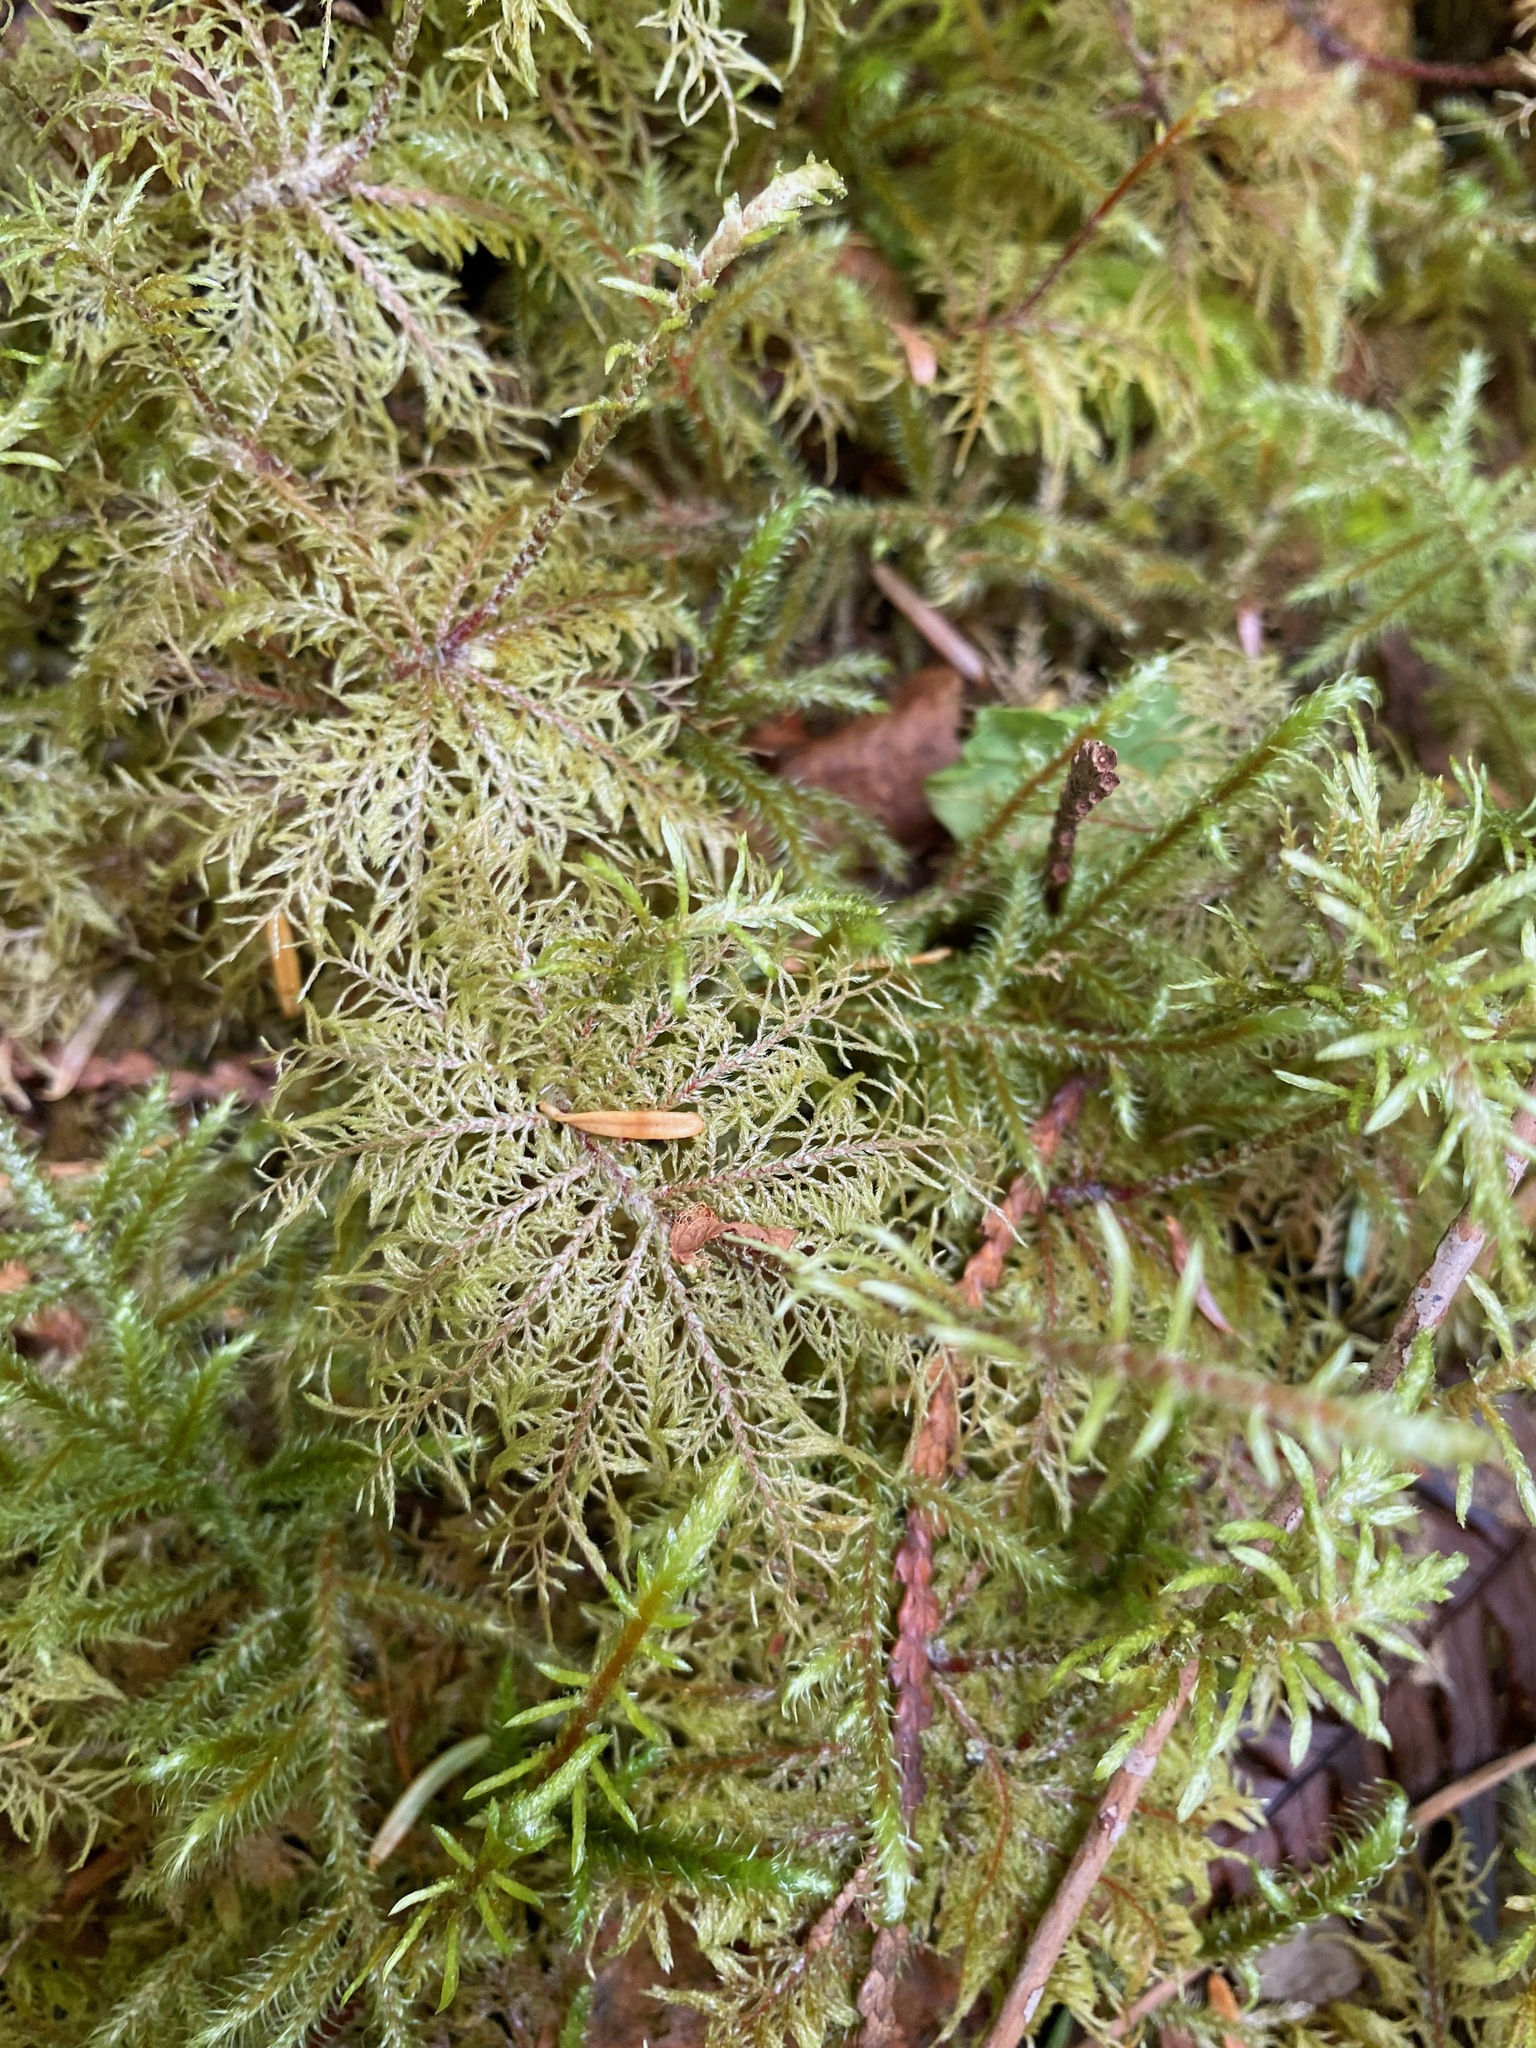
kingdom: Plantae
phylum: Bryophyta
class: Bryopsida
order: Hypnales
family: Hylocomiaceae
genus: Hylocomium
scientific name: Hylocomium splendens
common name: Stairstep moss
